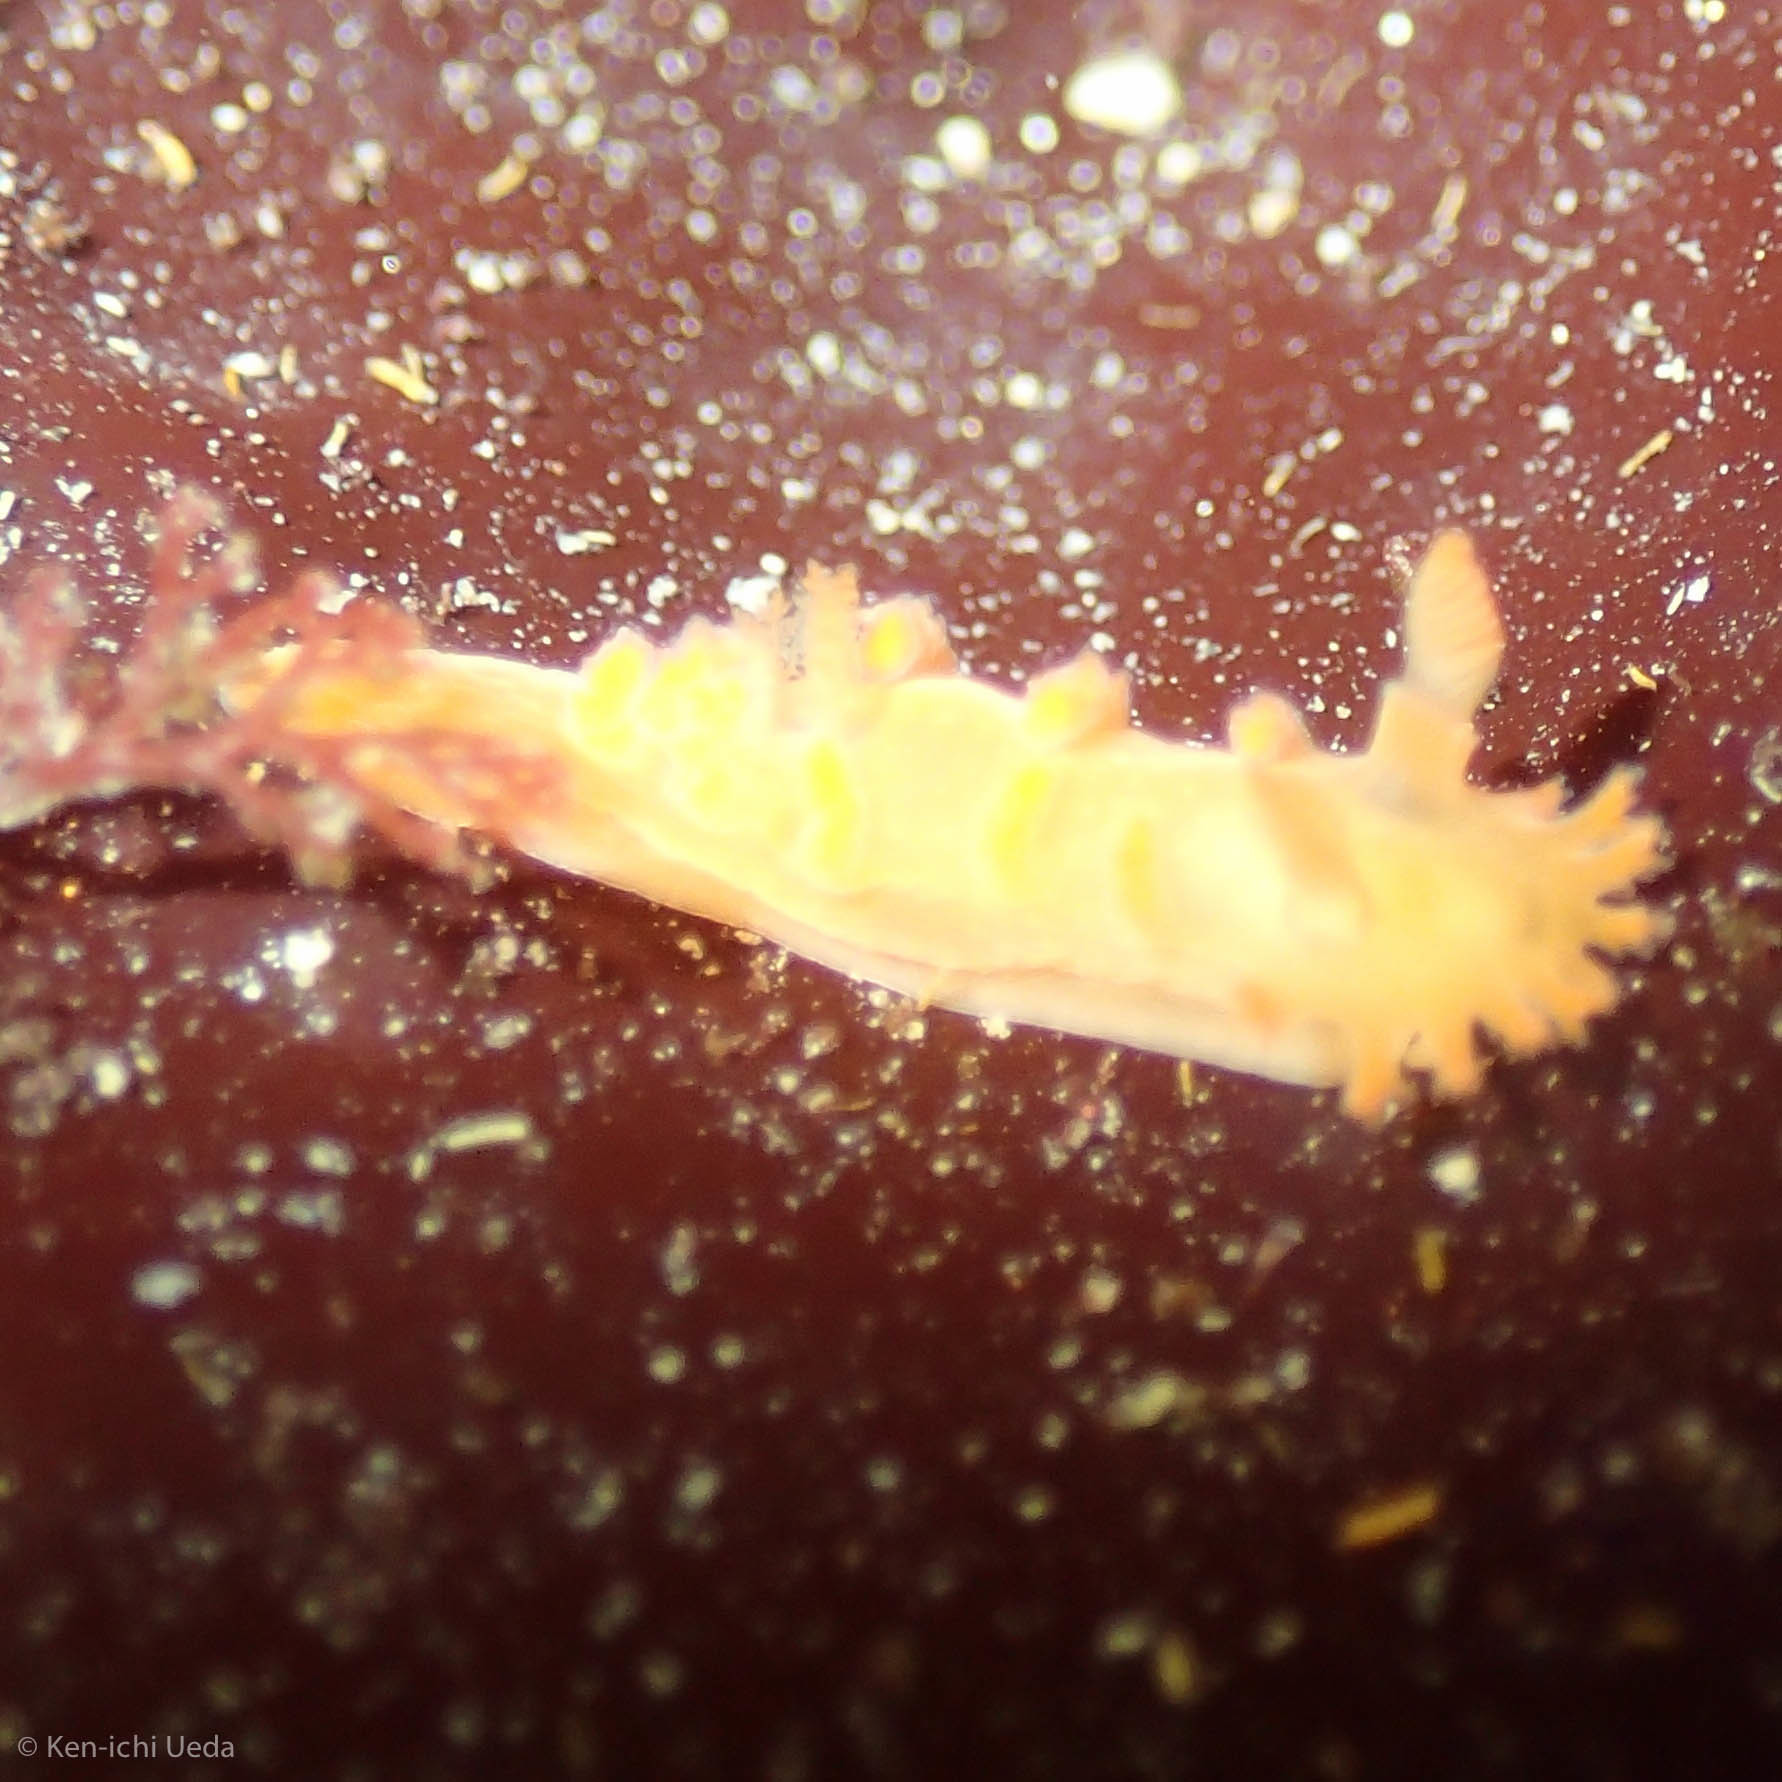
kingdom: Animalia
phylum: Mollusca
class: Gastropoda
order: Nudibranchia
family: Polyceridae
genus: Triopha
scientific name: Triopha maculata
